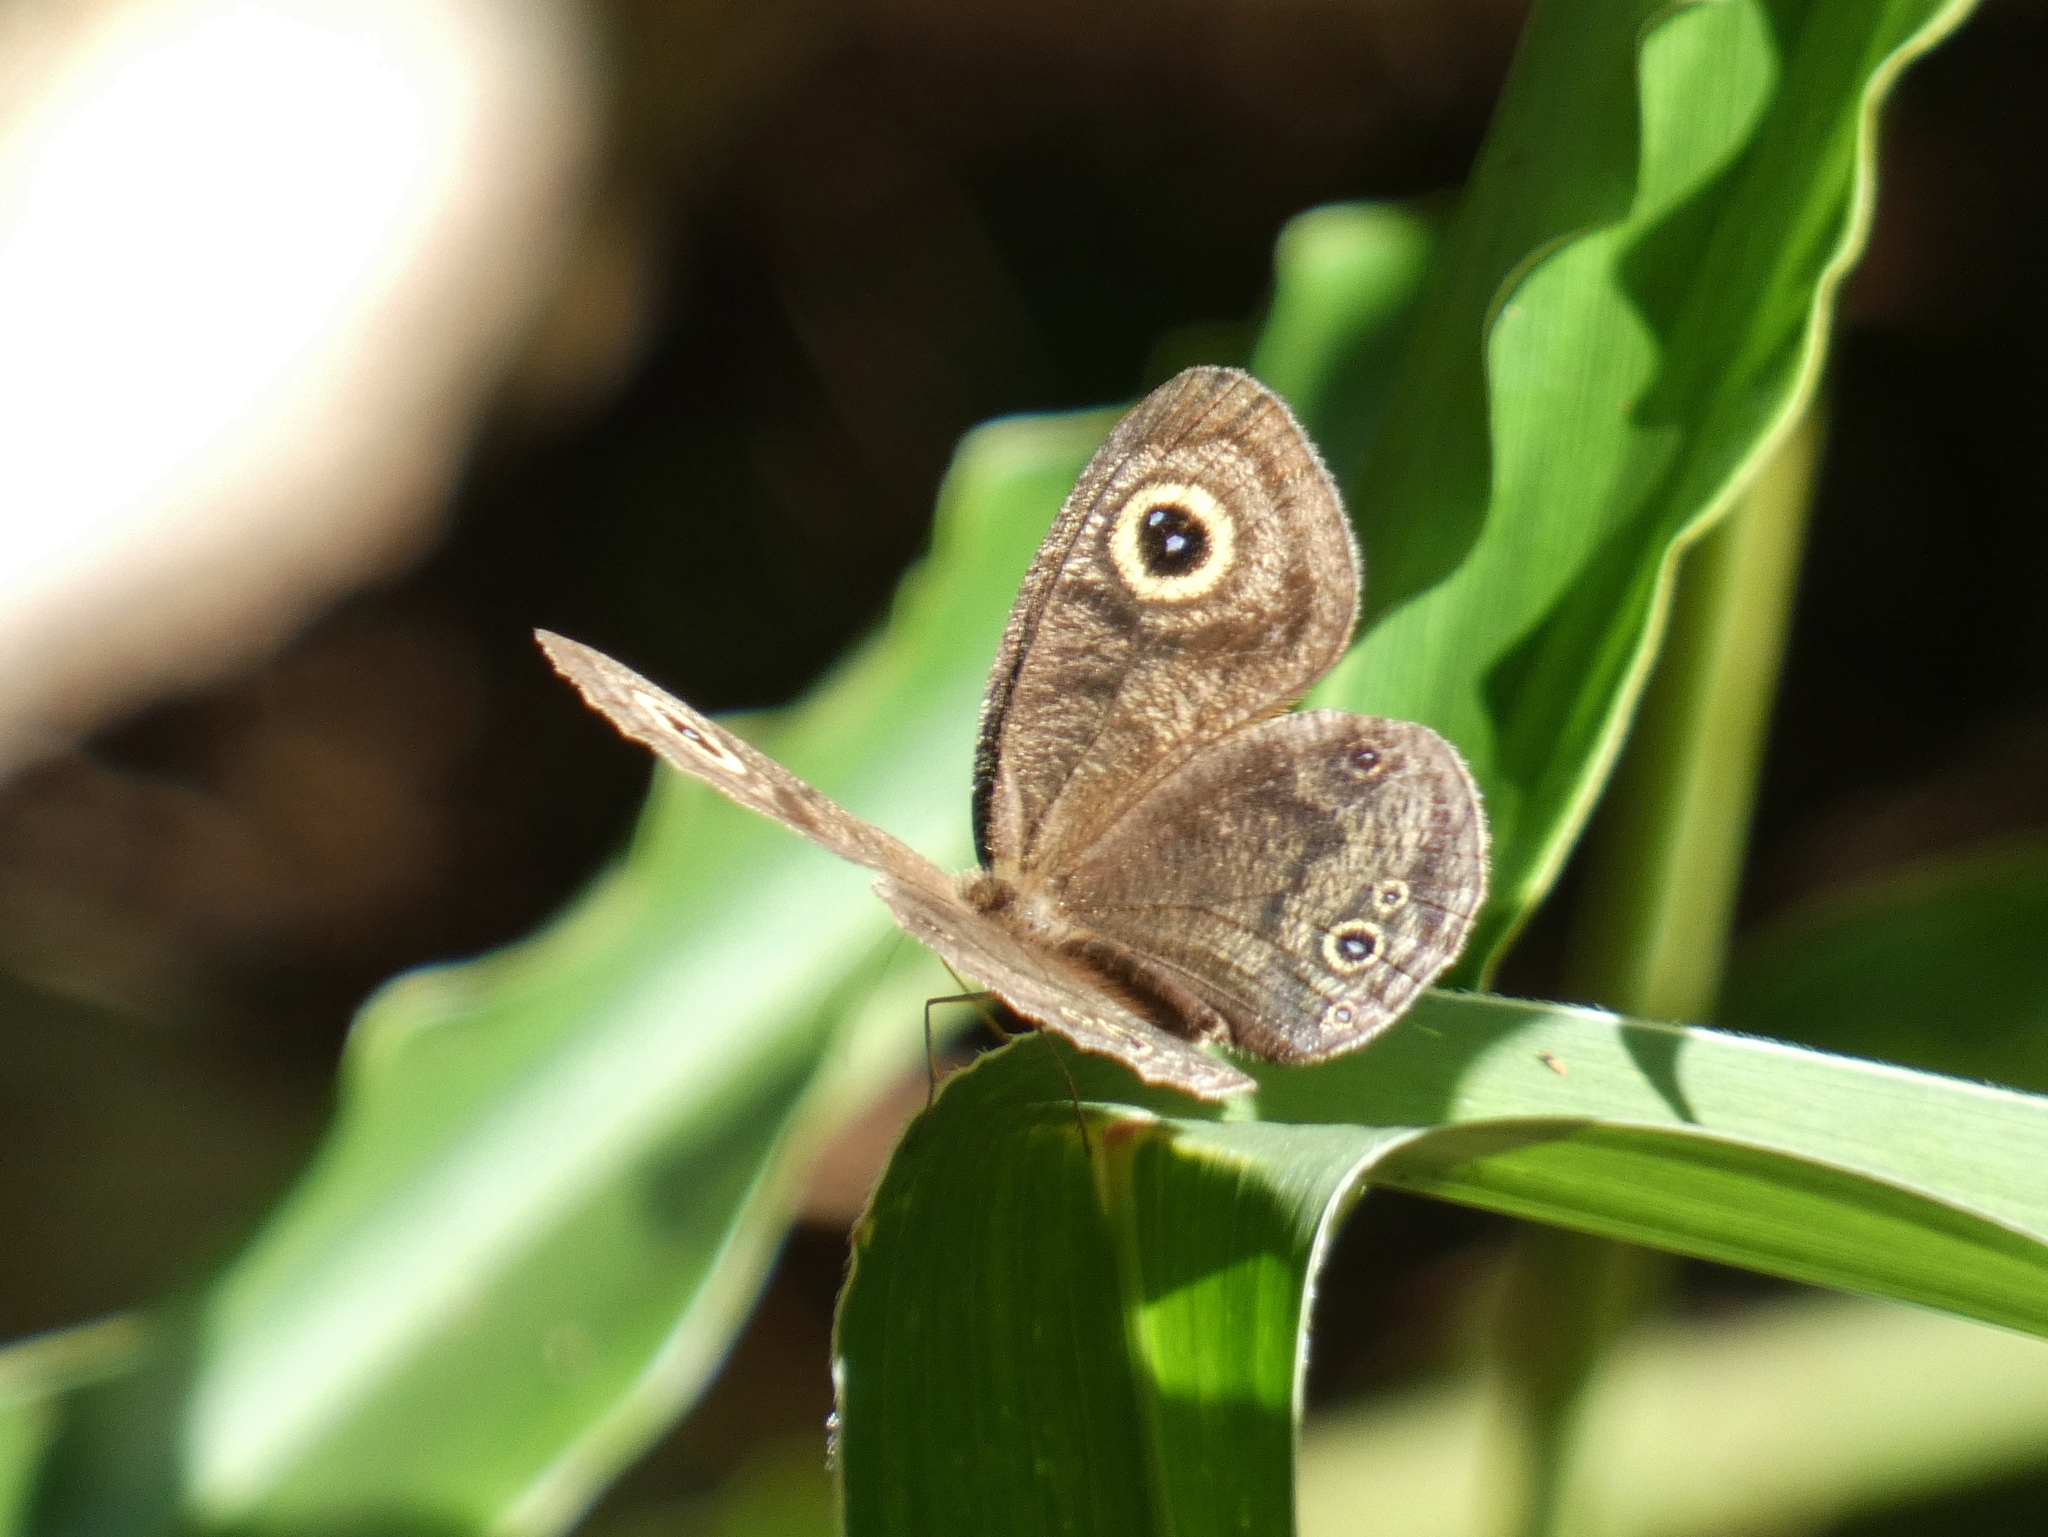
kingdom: Animalia
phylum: Arthropoda
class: Insecta
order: Lepidoptera
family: Nymphalidae
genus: Ypthima
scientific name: Ypthima doleta
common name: Common ringlet
